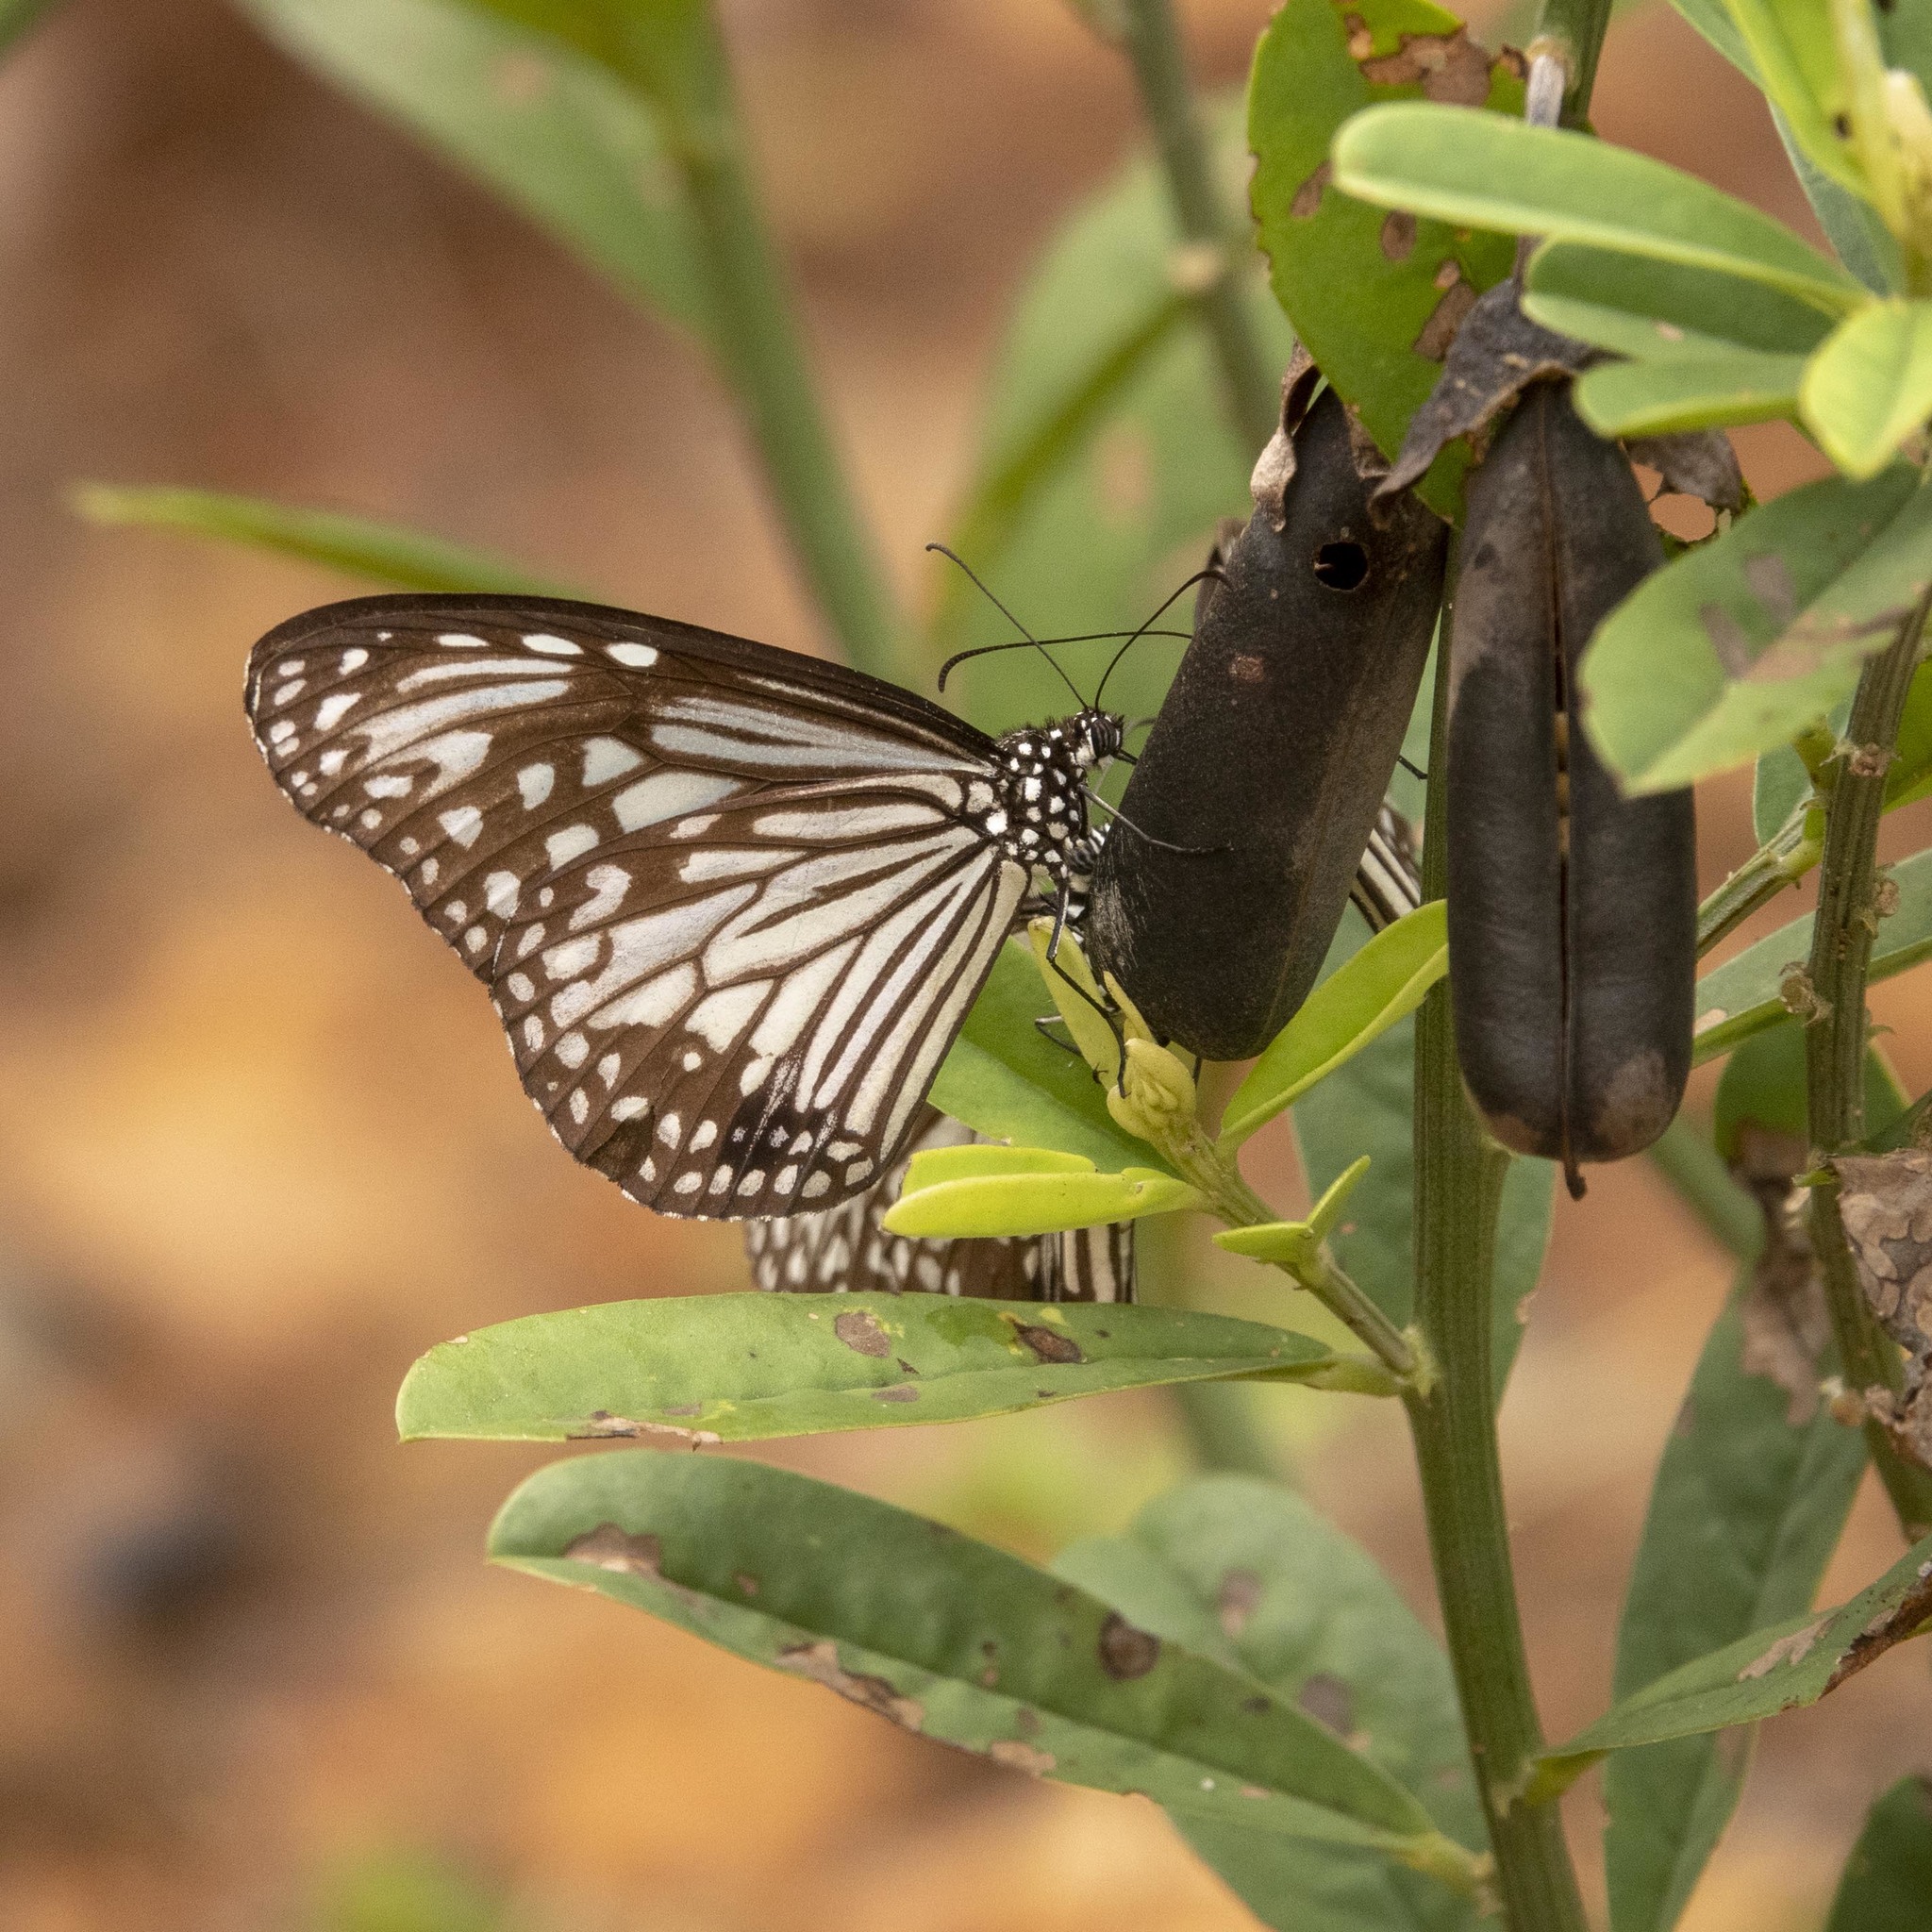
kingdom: Animalia
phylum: Arthropoda
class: Insecta
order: Lepidoptera
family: Nymphalidae
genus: Parantica
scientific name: Parantica aglea
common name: Glassy tiger
